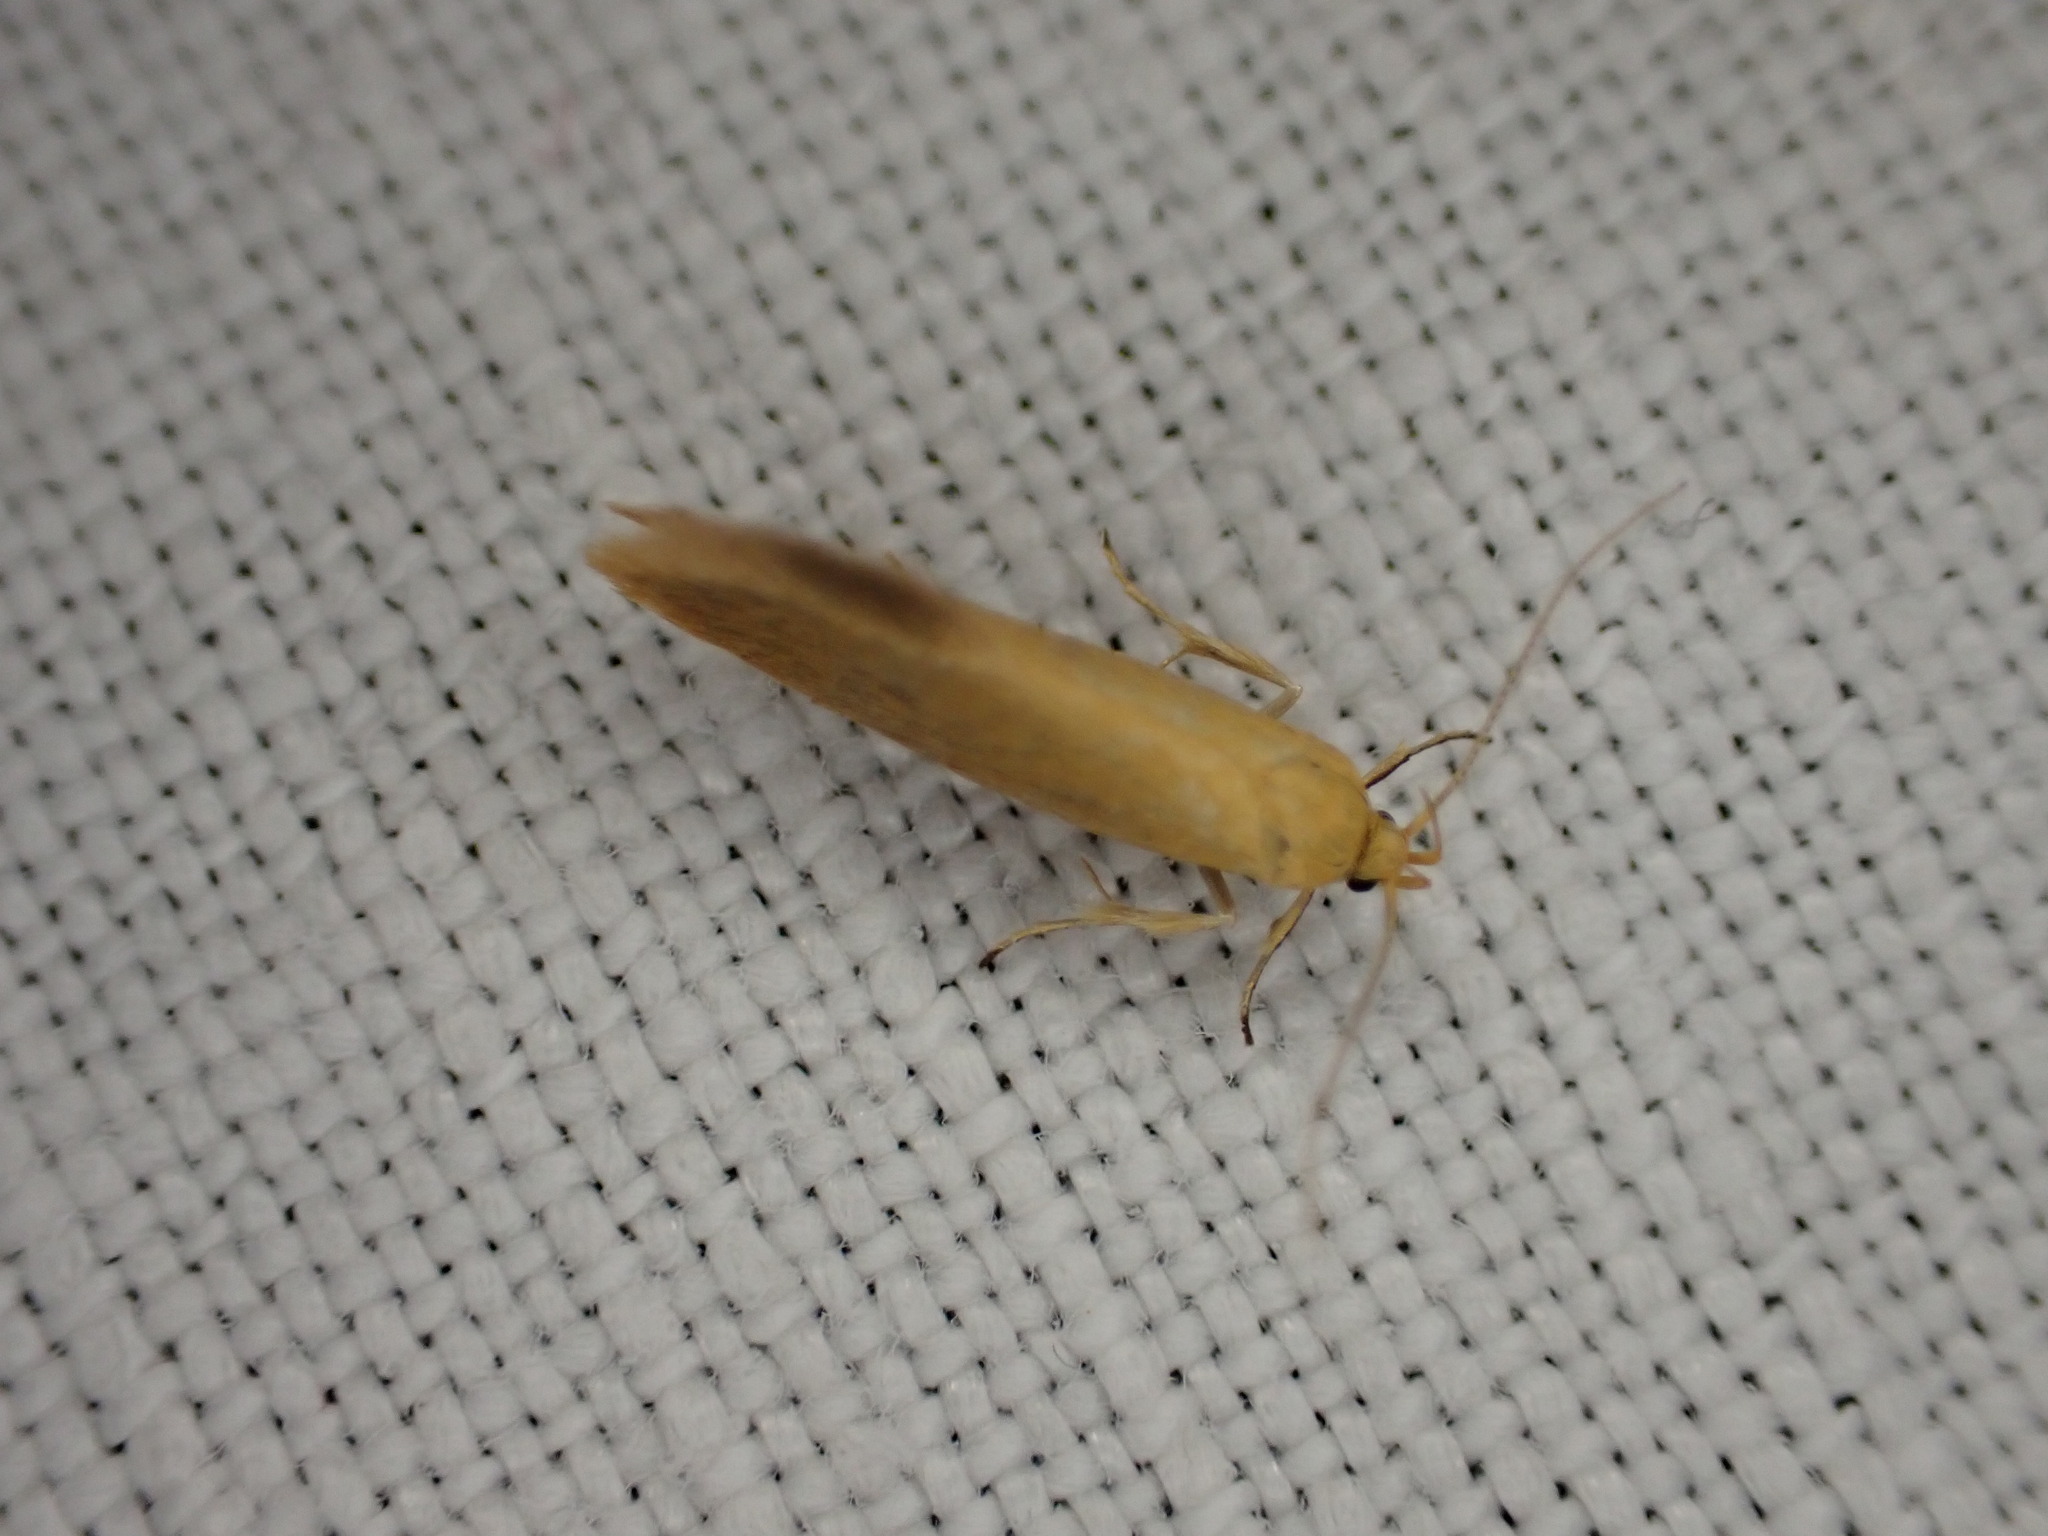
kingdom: Animalia
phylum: Arthropoda
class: Insecta
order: Lepidoptera
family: Oecophoridae
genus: Borkhausenia
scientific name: Borkhausenia Crassa tinctella
